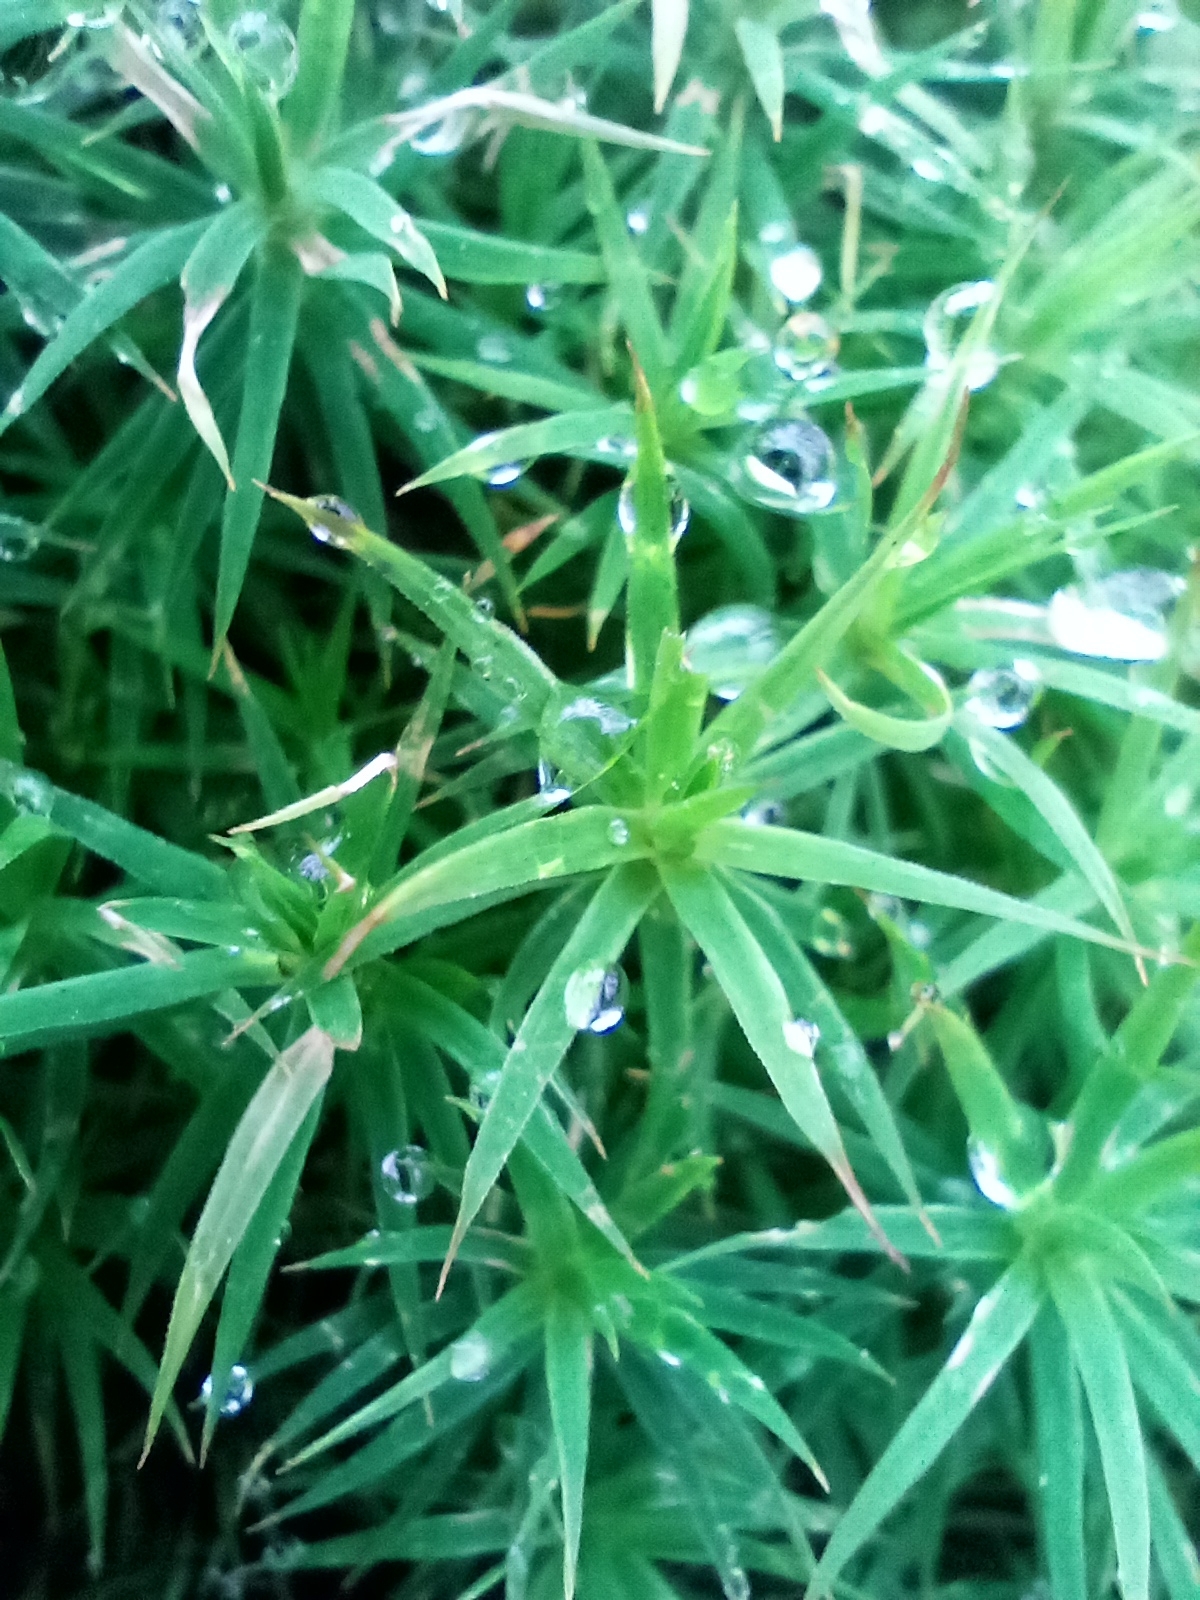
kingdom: Plantae
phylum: Bryophyta
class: Polytrichopsida
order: Polytrichales
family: Polytrichaceae
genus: Polytrichum
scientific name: Polytrichum formosum
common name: Bank haircap moss
